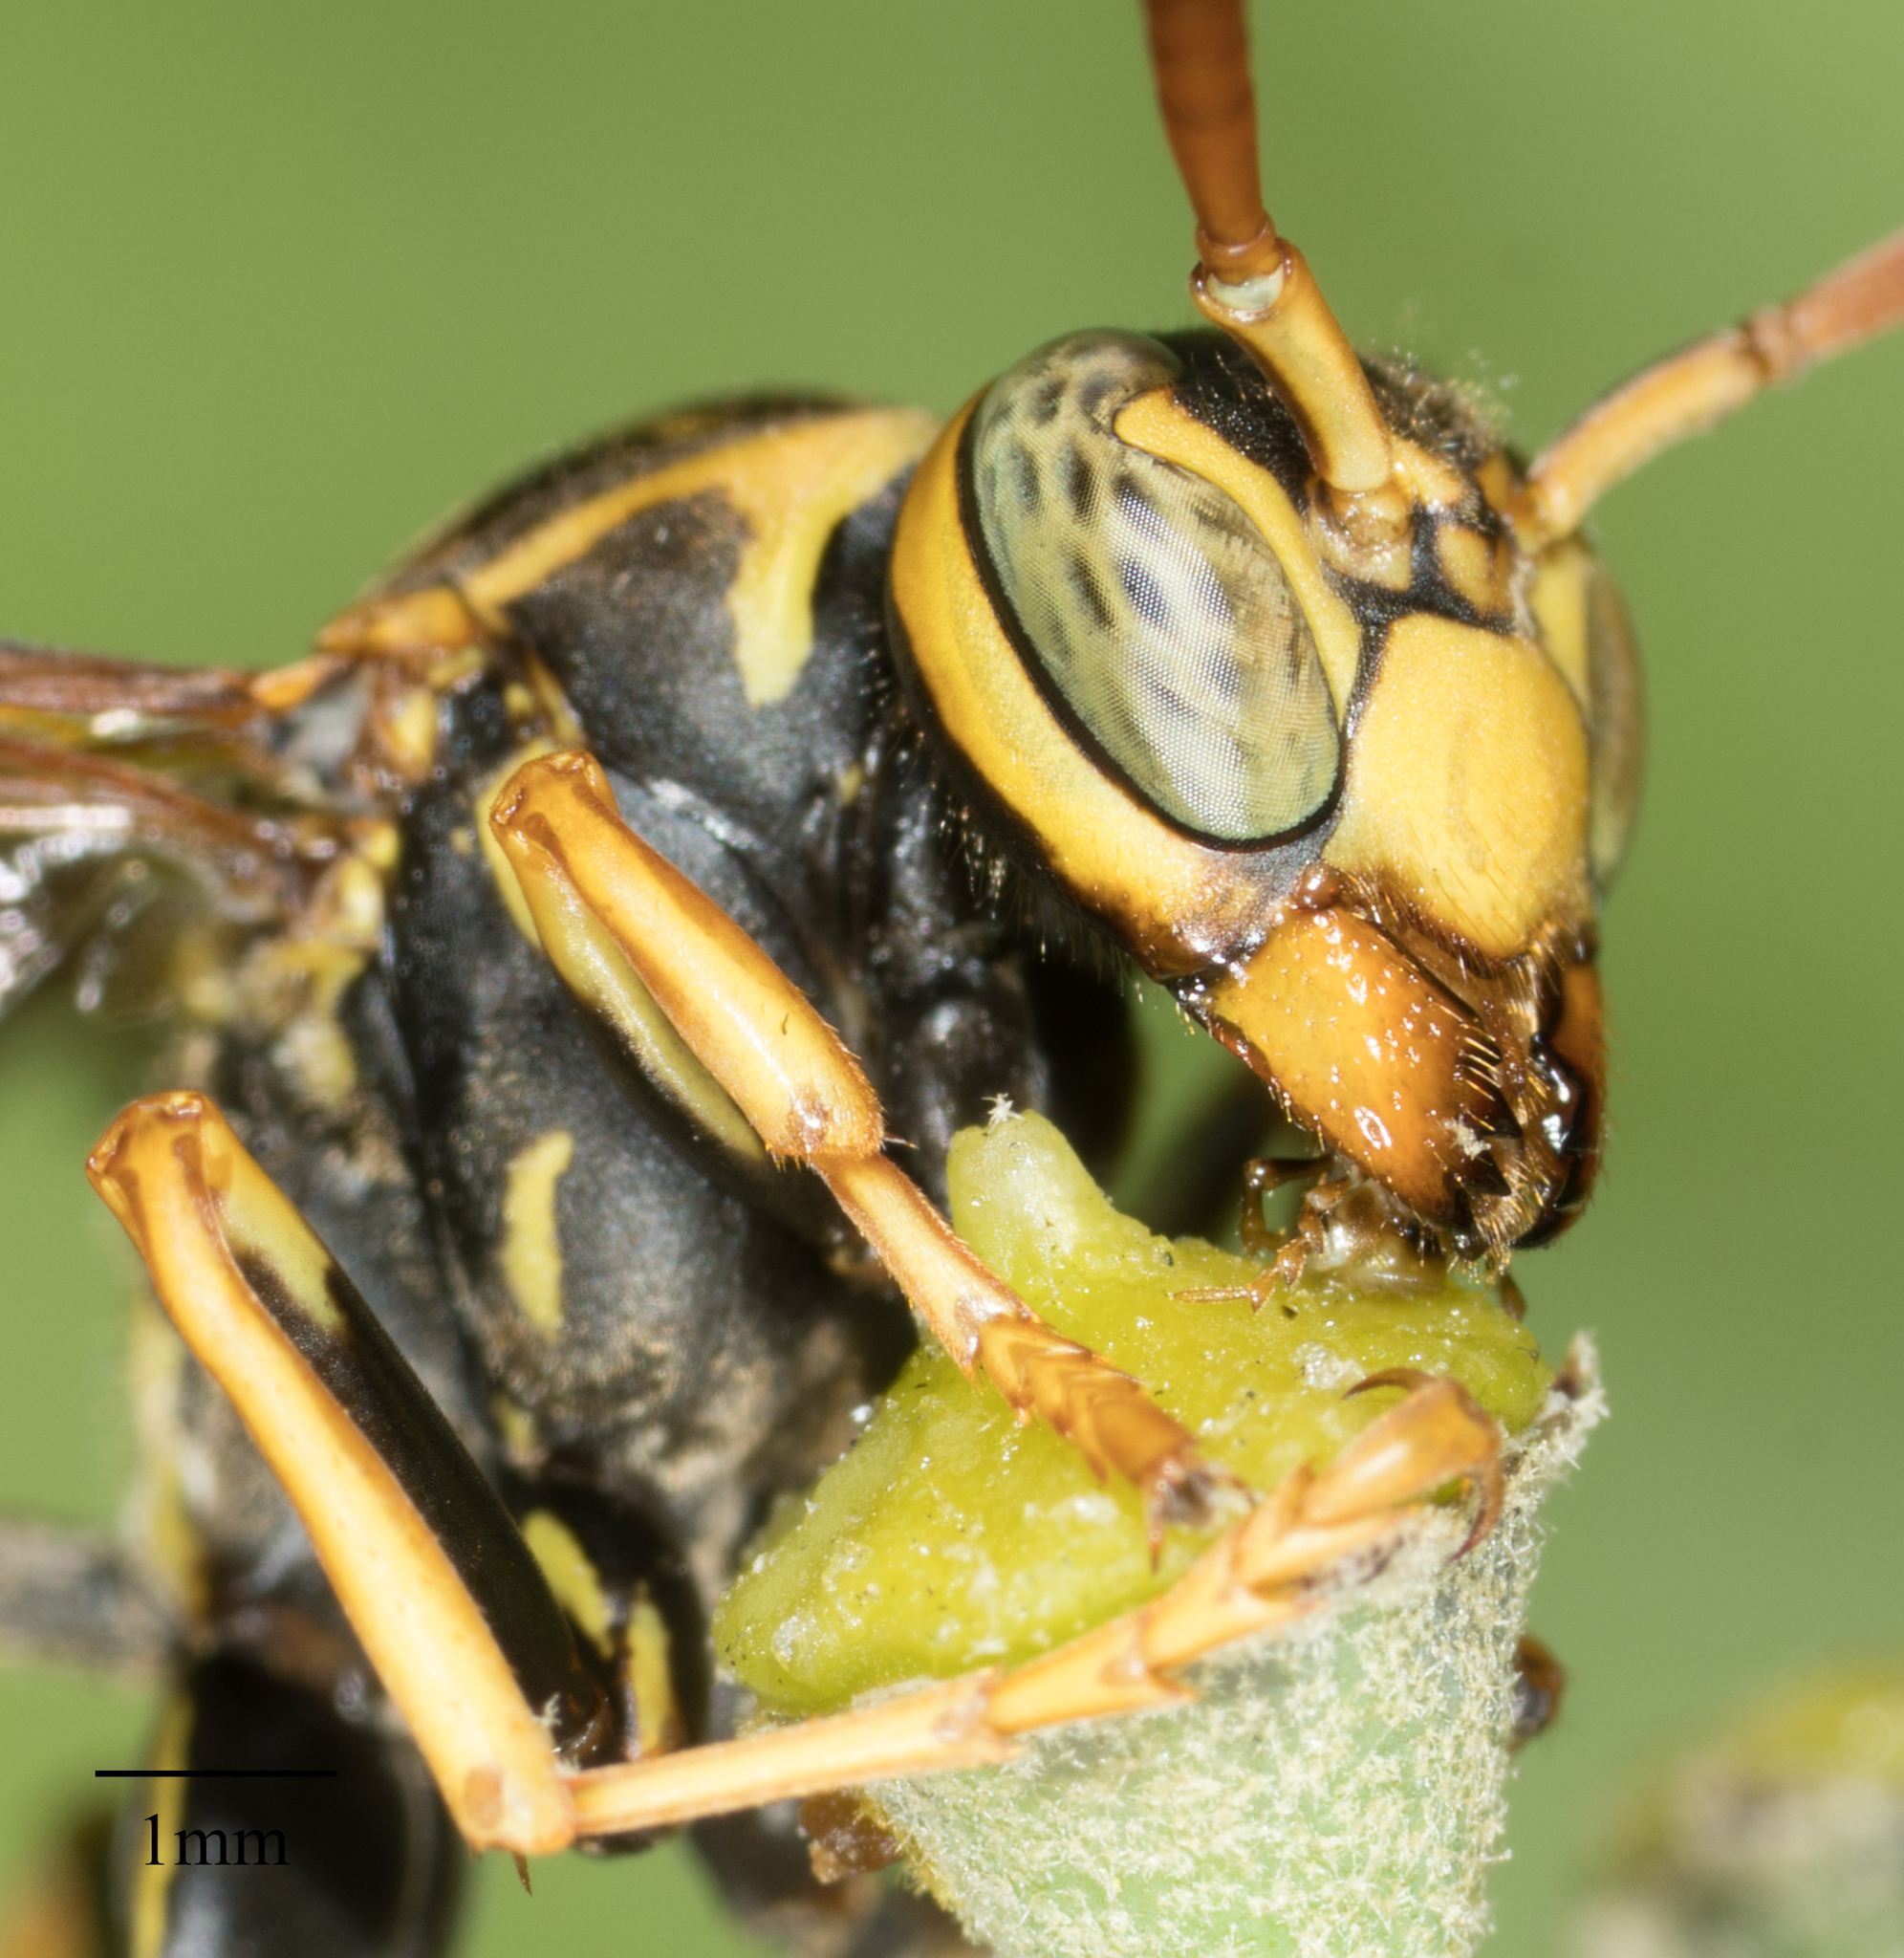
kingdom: Animalia
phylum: Arthropoda
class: Insecta
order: Hymenoptera
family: Vespidae
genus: Mischocyttarus
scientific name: Mischocyttarus flavitarsis
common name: Wasp
